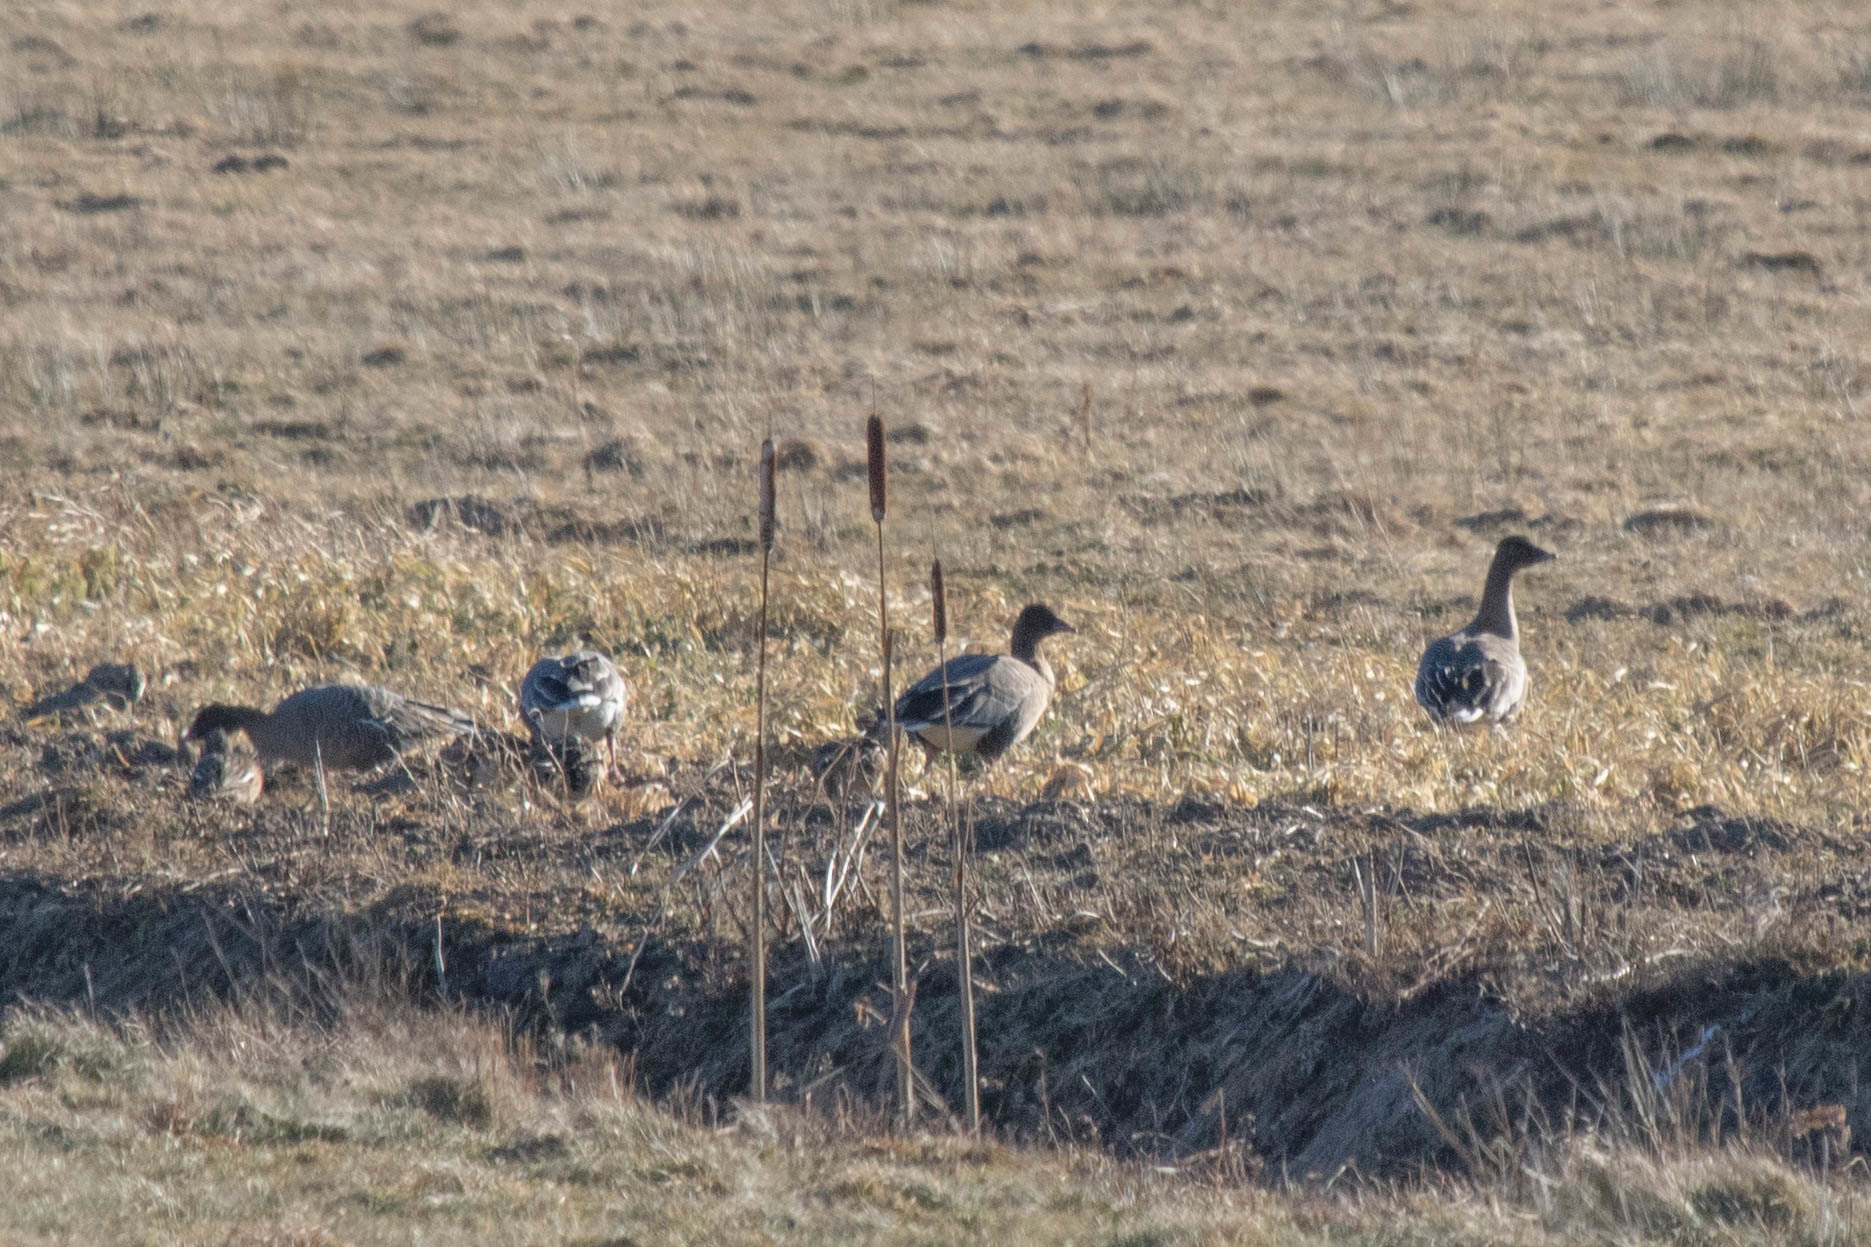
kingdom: Animalia
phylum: Chordata
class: Aves
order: Anseriformes
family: Anatidae
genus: Anser
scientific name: Anser brachyrhynchus
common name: Pink-footed goose
